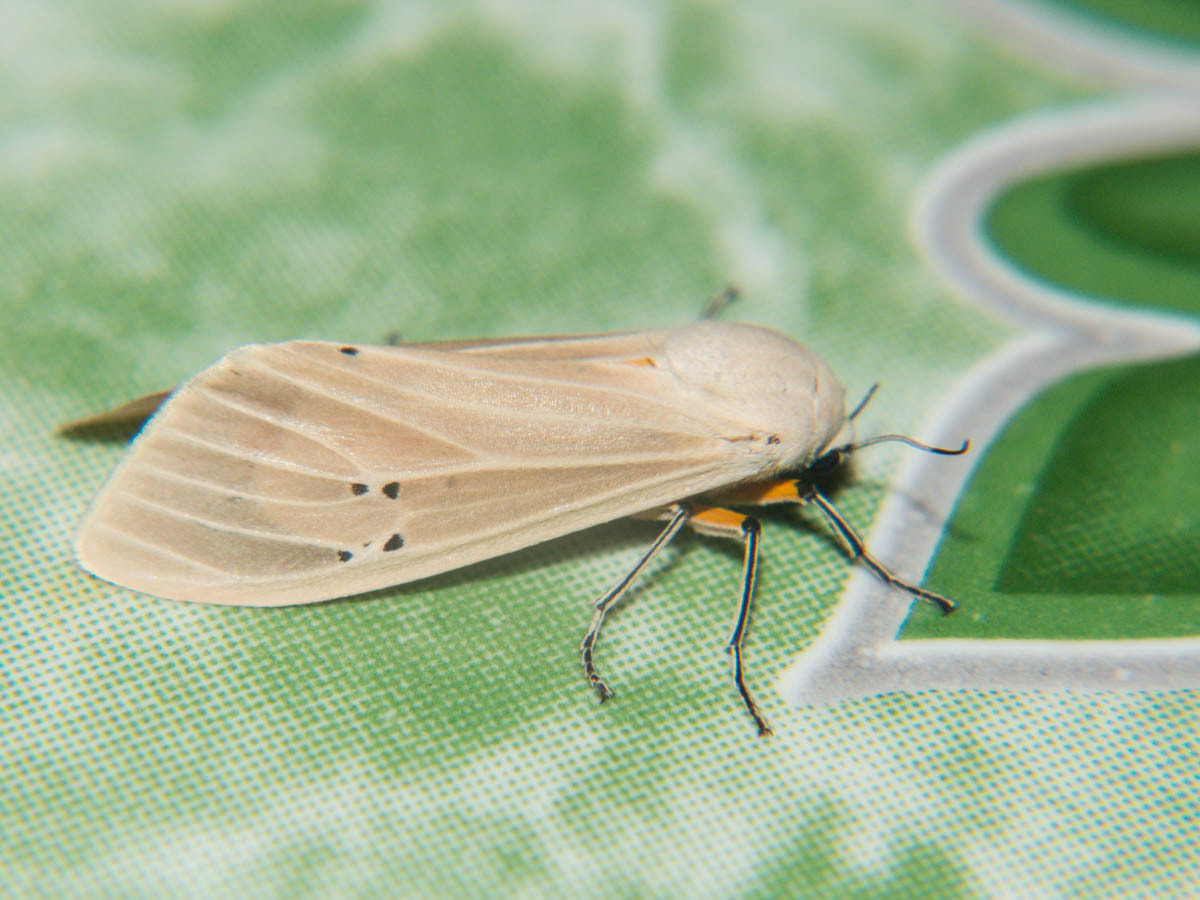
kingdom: Animalia
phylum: Arthropoda
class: Insecta
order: Lepidoptera
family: Erebidae
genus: Creatonotos
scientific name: Creatonotos transiens
